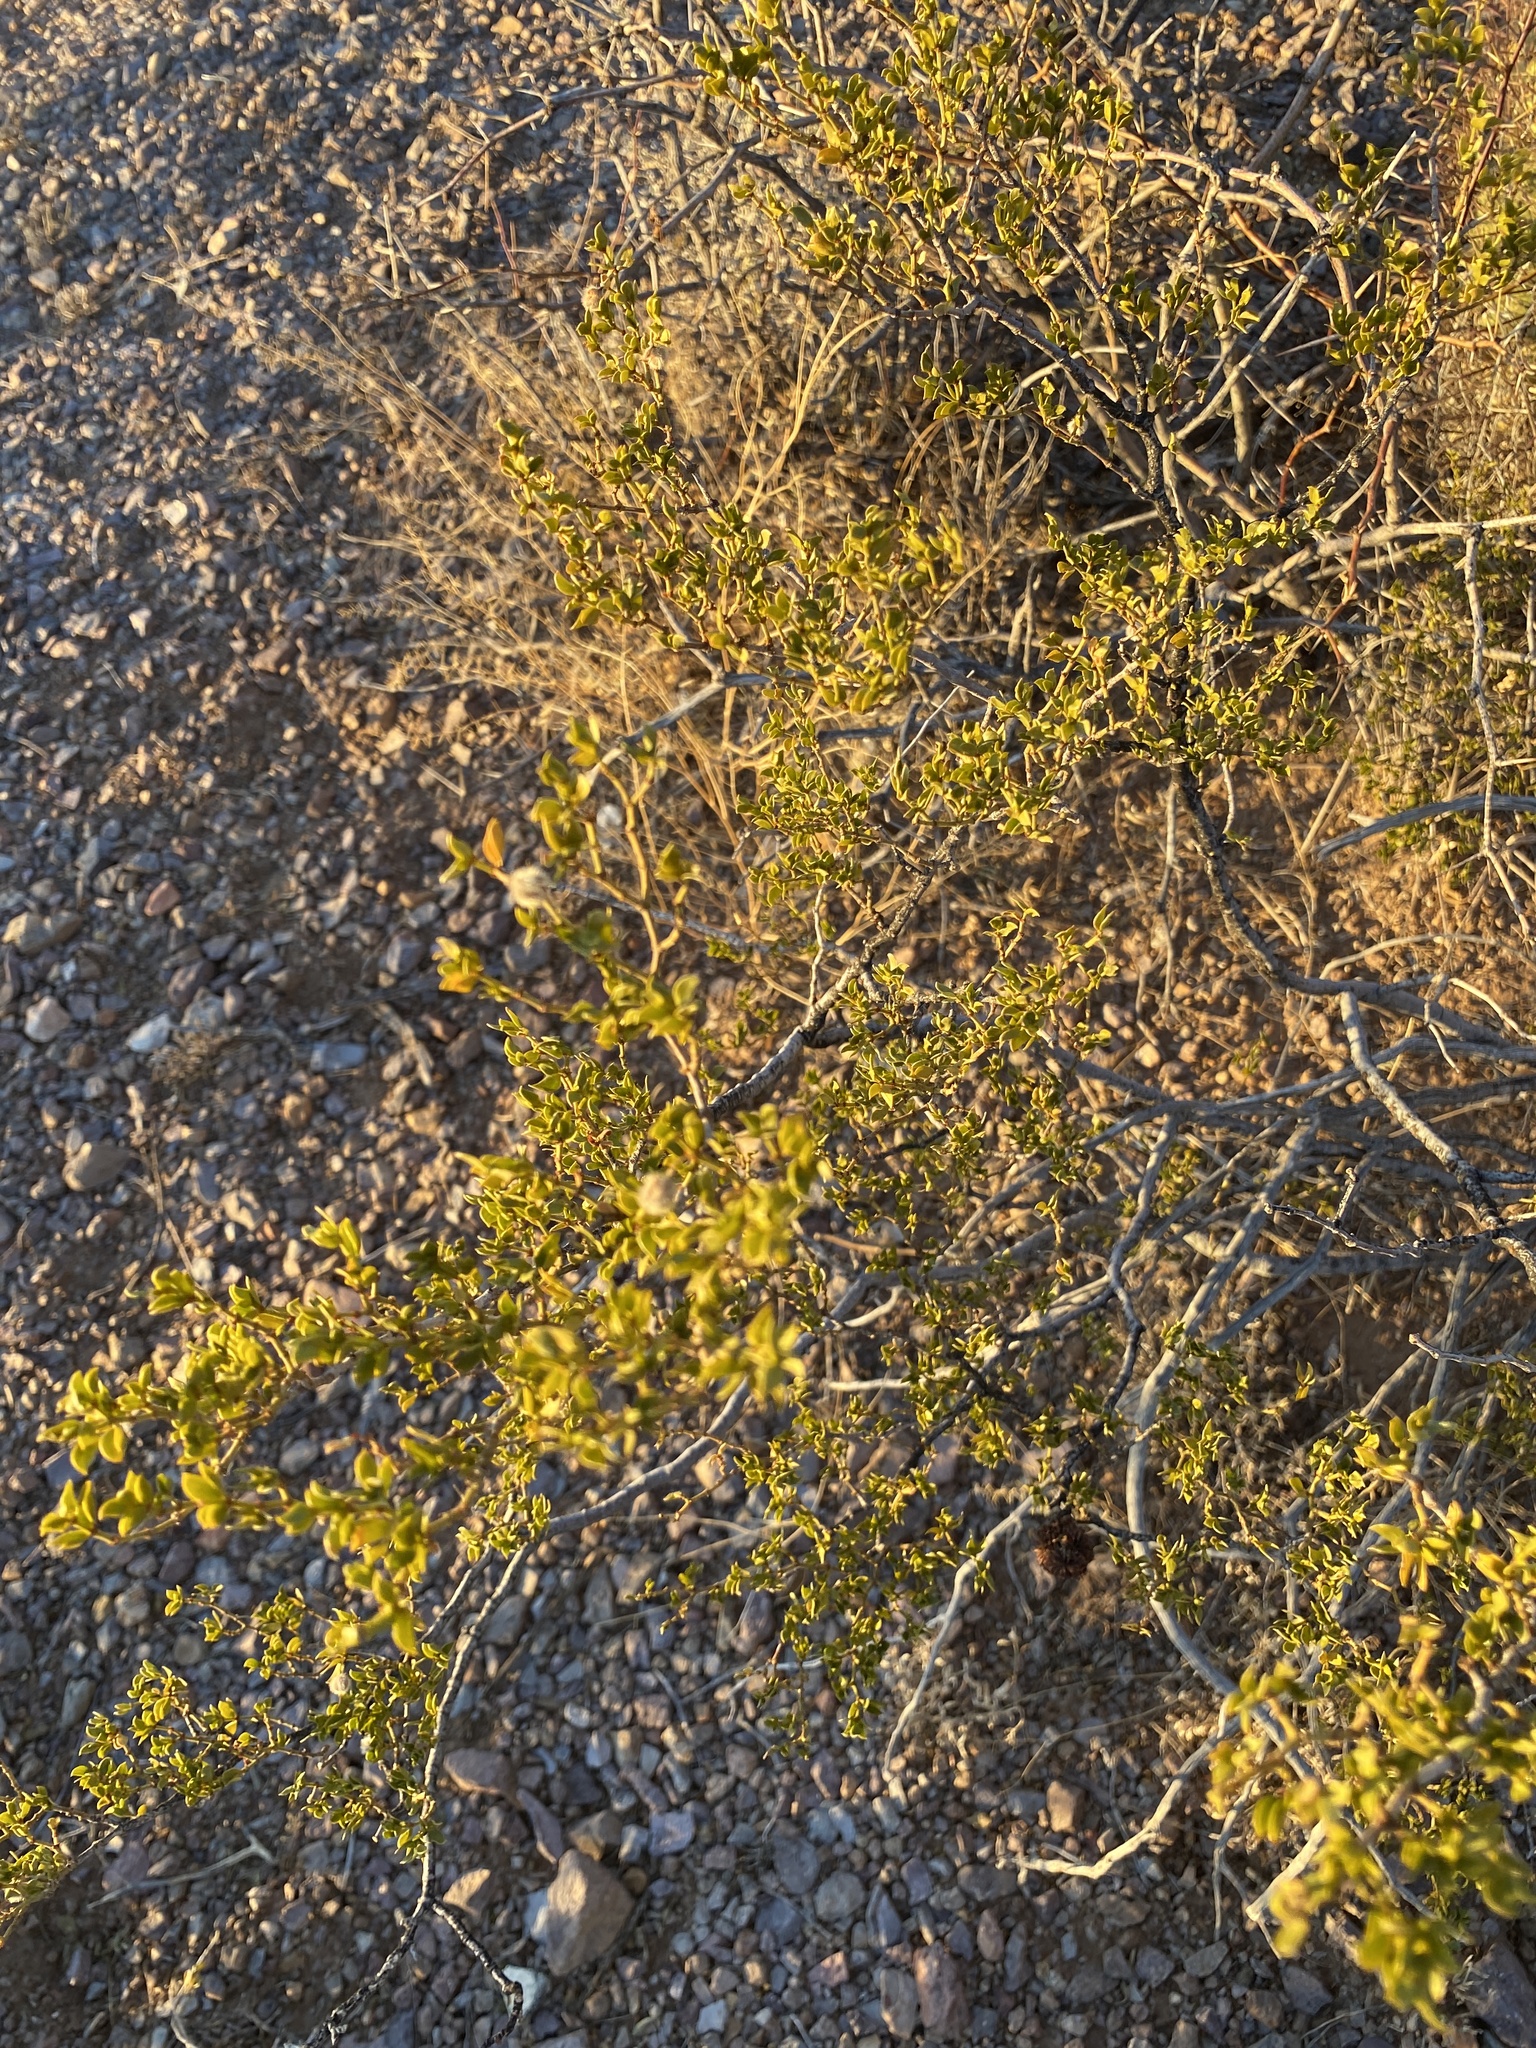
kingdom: Plantae
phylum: Tracheophyta
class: Magnoliopsida
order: Zygophyllales
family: Zygophyllaceae
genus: Larrea
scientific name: Larrea tridentata
